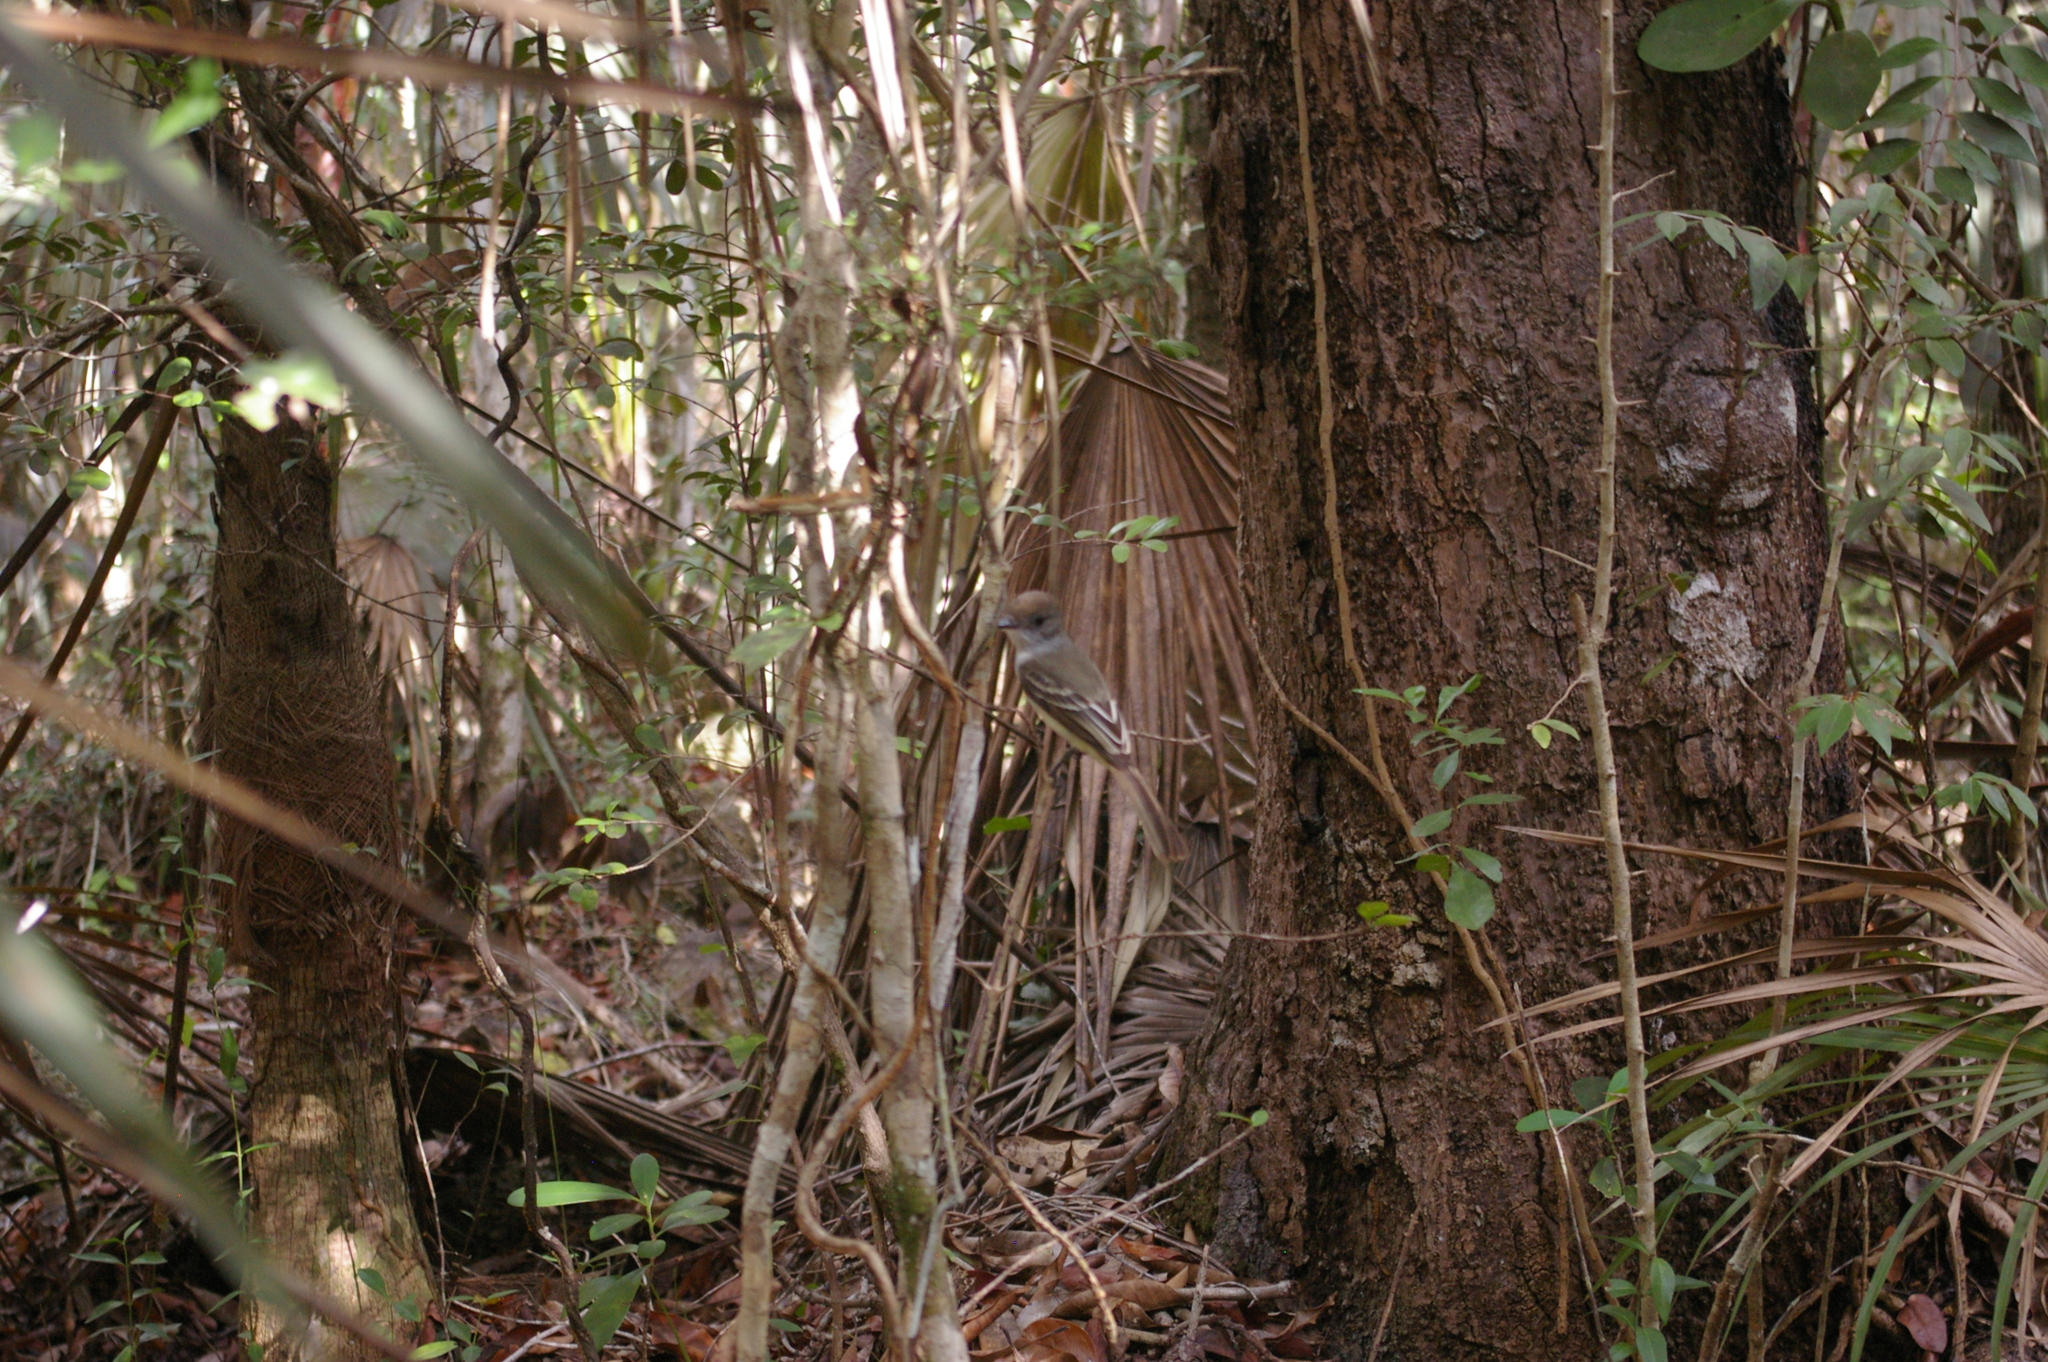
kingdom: Animalia
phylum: Chordata
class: Aves
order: Passeriformes
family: Tyrannidae
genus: Myiarchus
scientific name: Myiarchus sagrae
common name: La sagra's flycatcher
